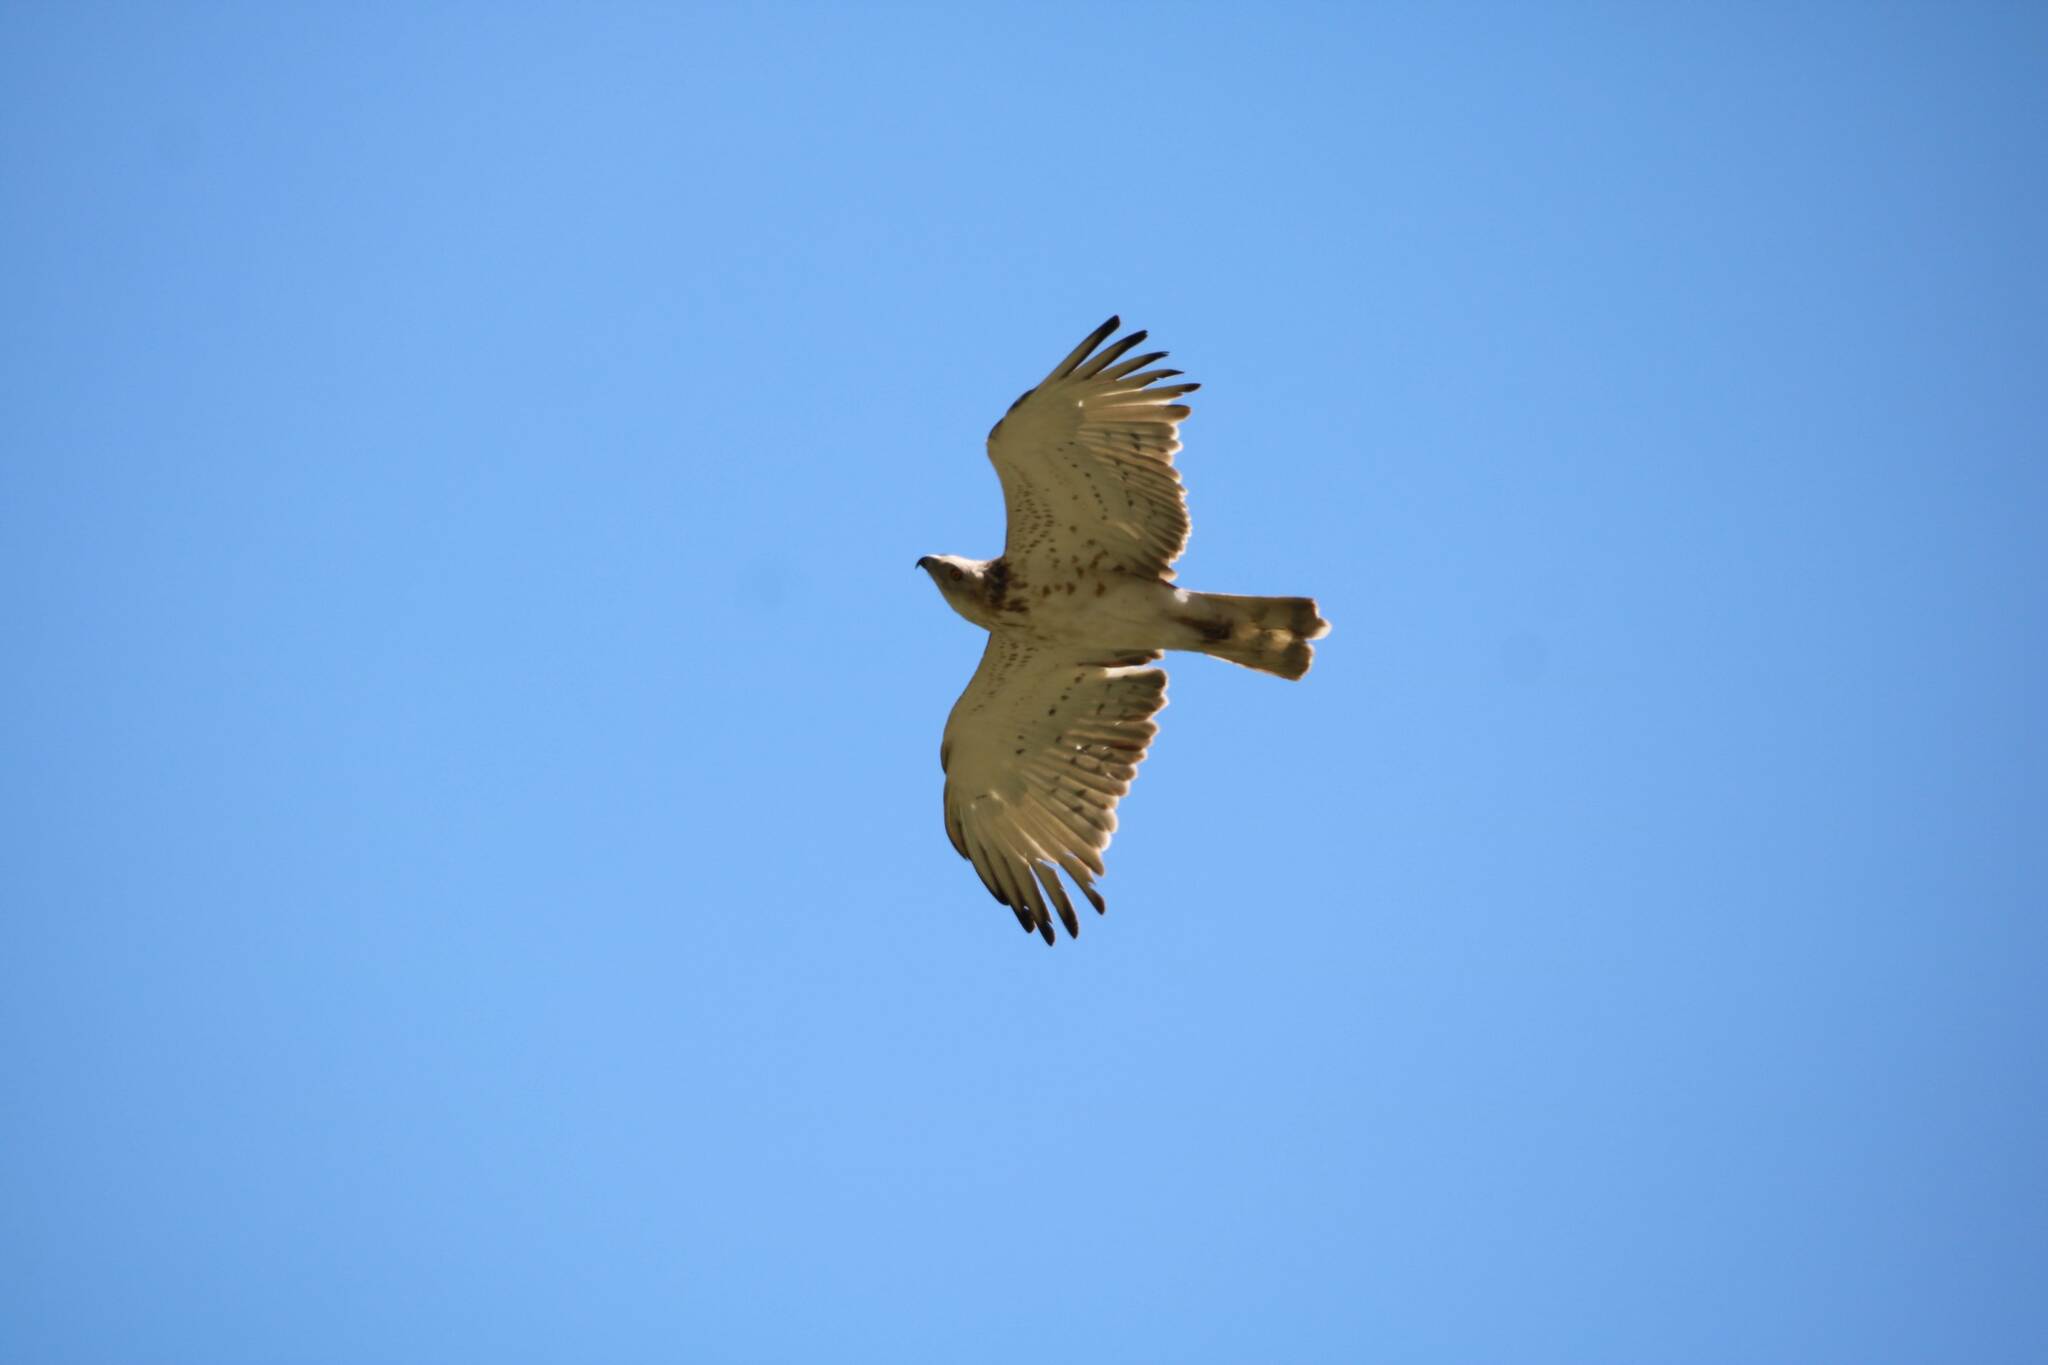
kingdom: Animalia
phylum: Chordata
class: Aves
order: Accipitriformes
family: Accipitridae
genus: Circaetus
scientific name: Circaetus gallicus
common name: Short-toed snake eagle
